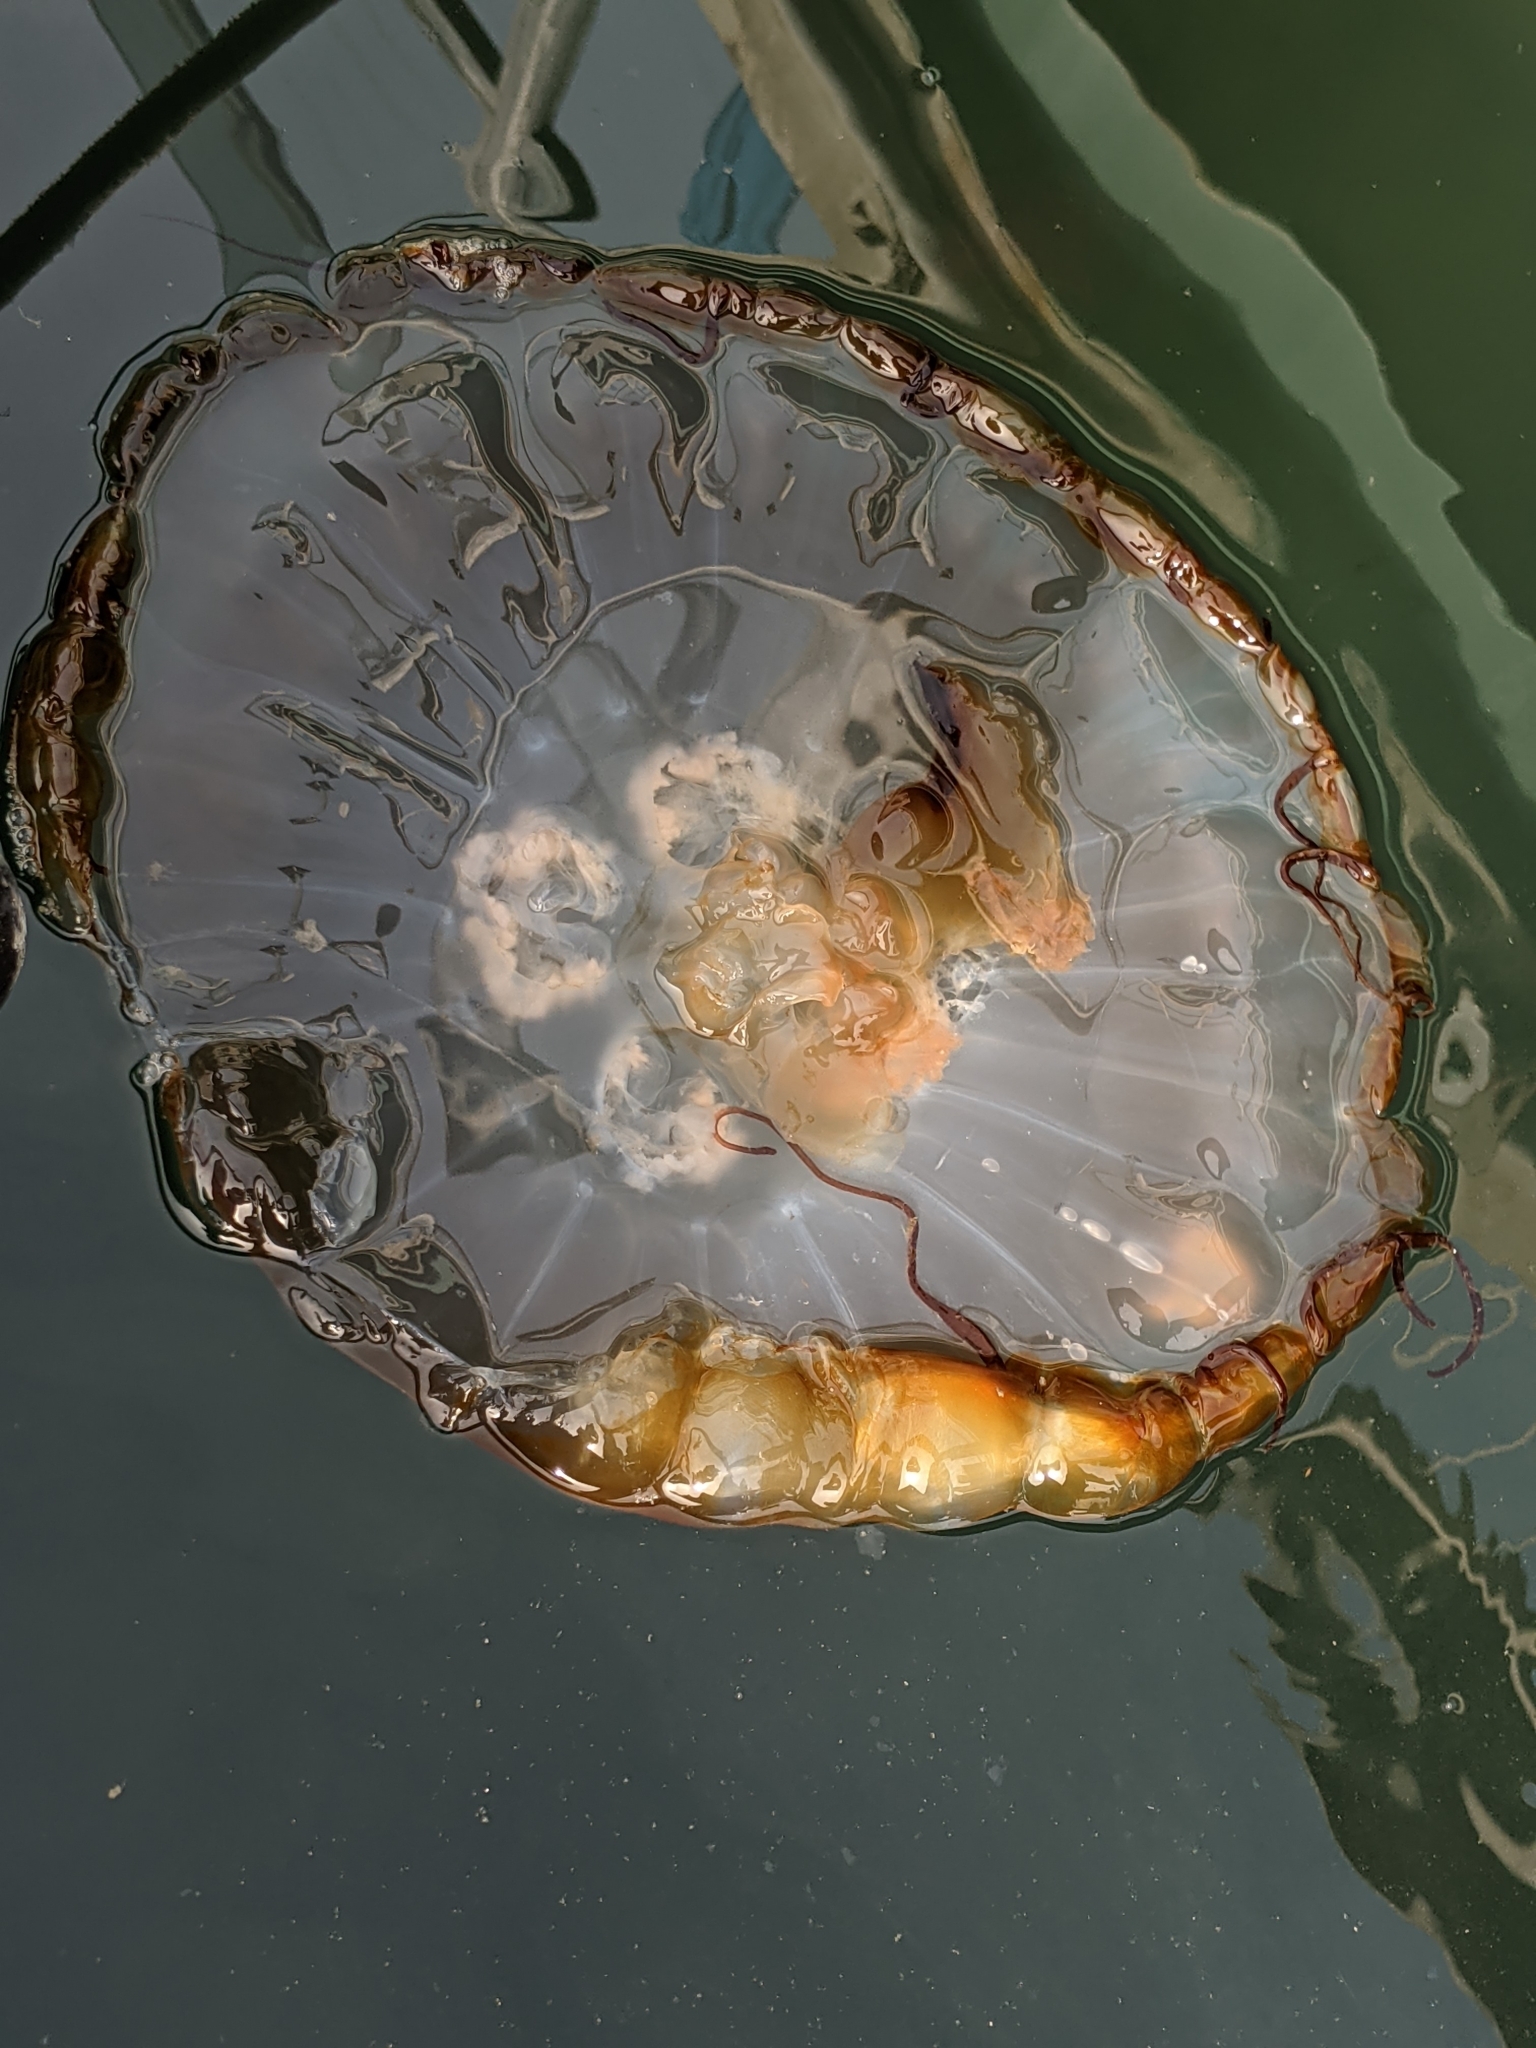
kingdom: Animalia
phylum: Cnidaria
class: Scyphozoa
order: Semaeostomeae
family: Pelagiidae
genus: Chrysaora
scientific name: Chrysaora fuscescens
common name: Sea nettle
